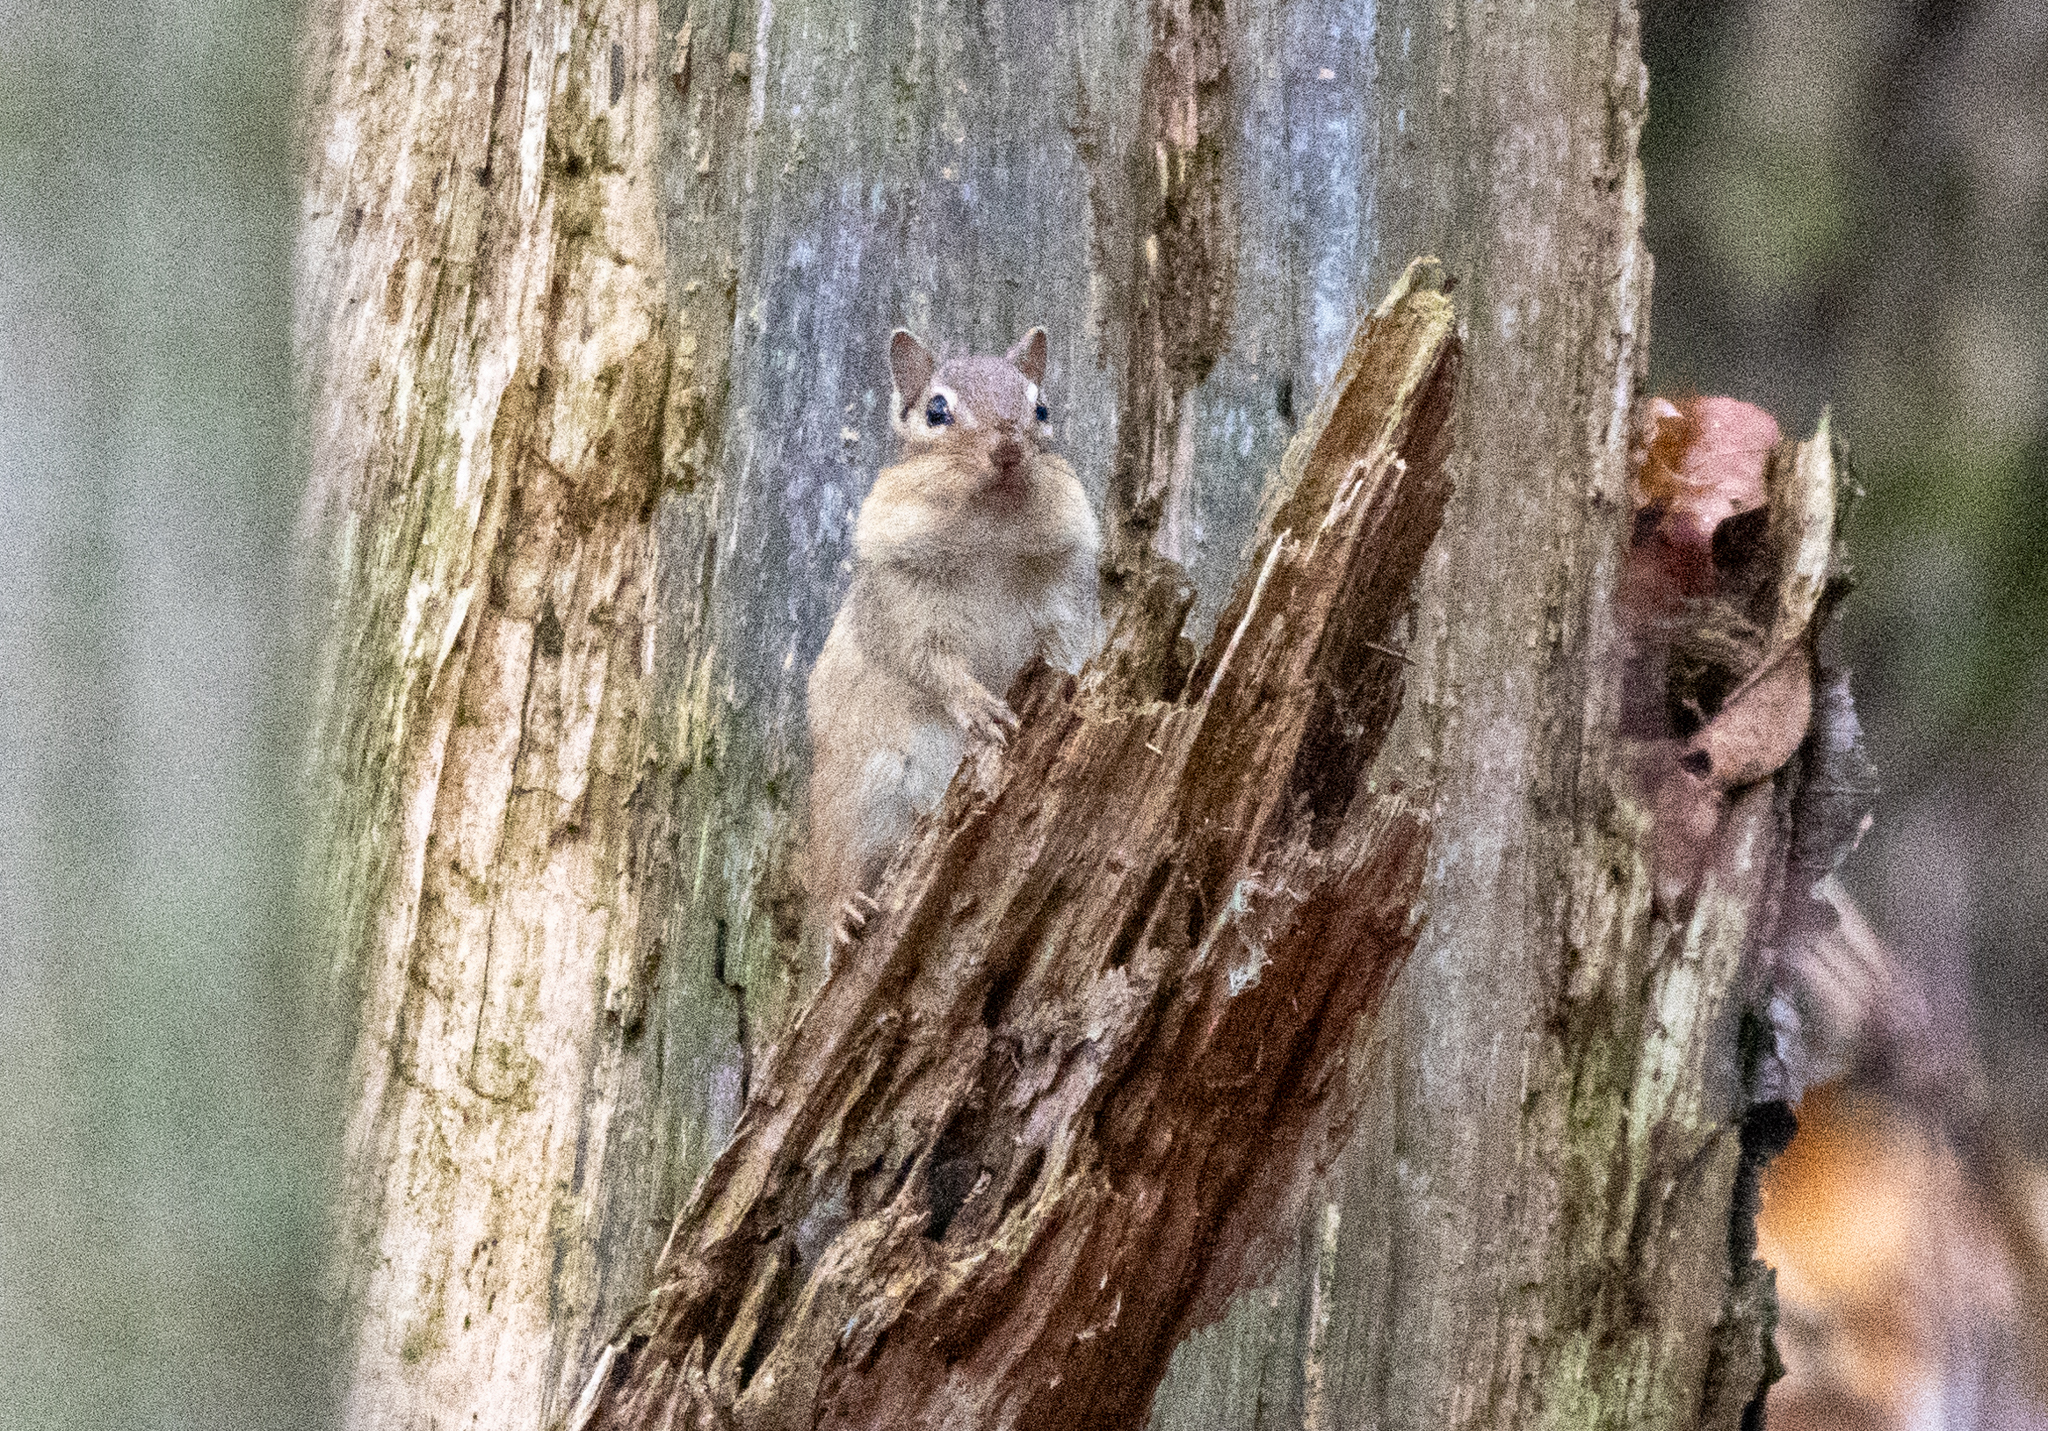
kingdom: Animalia
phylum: Chordata
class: Mammalia
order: Rodentia
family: Sciuridae
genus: Tamias
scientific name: Tamias striatus
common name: Eastern chipmunk
